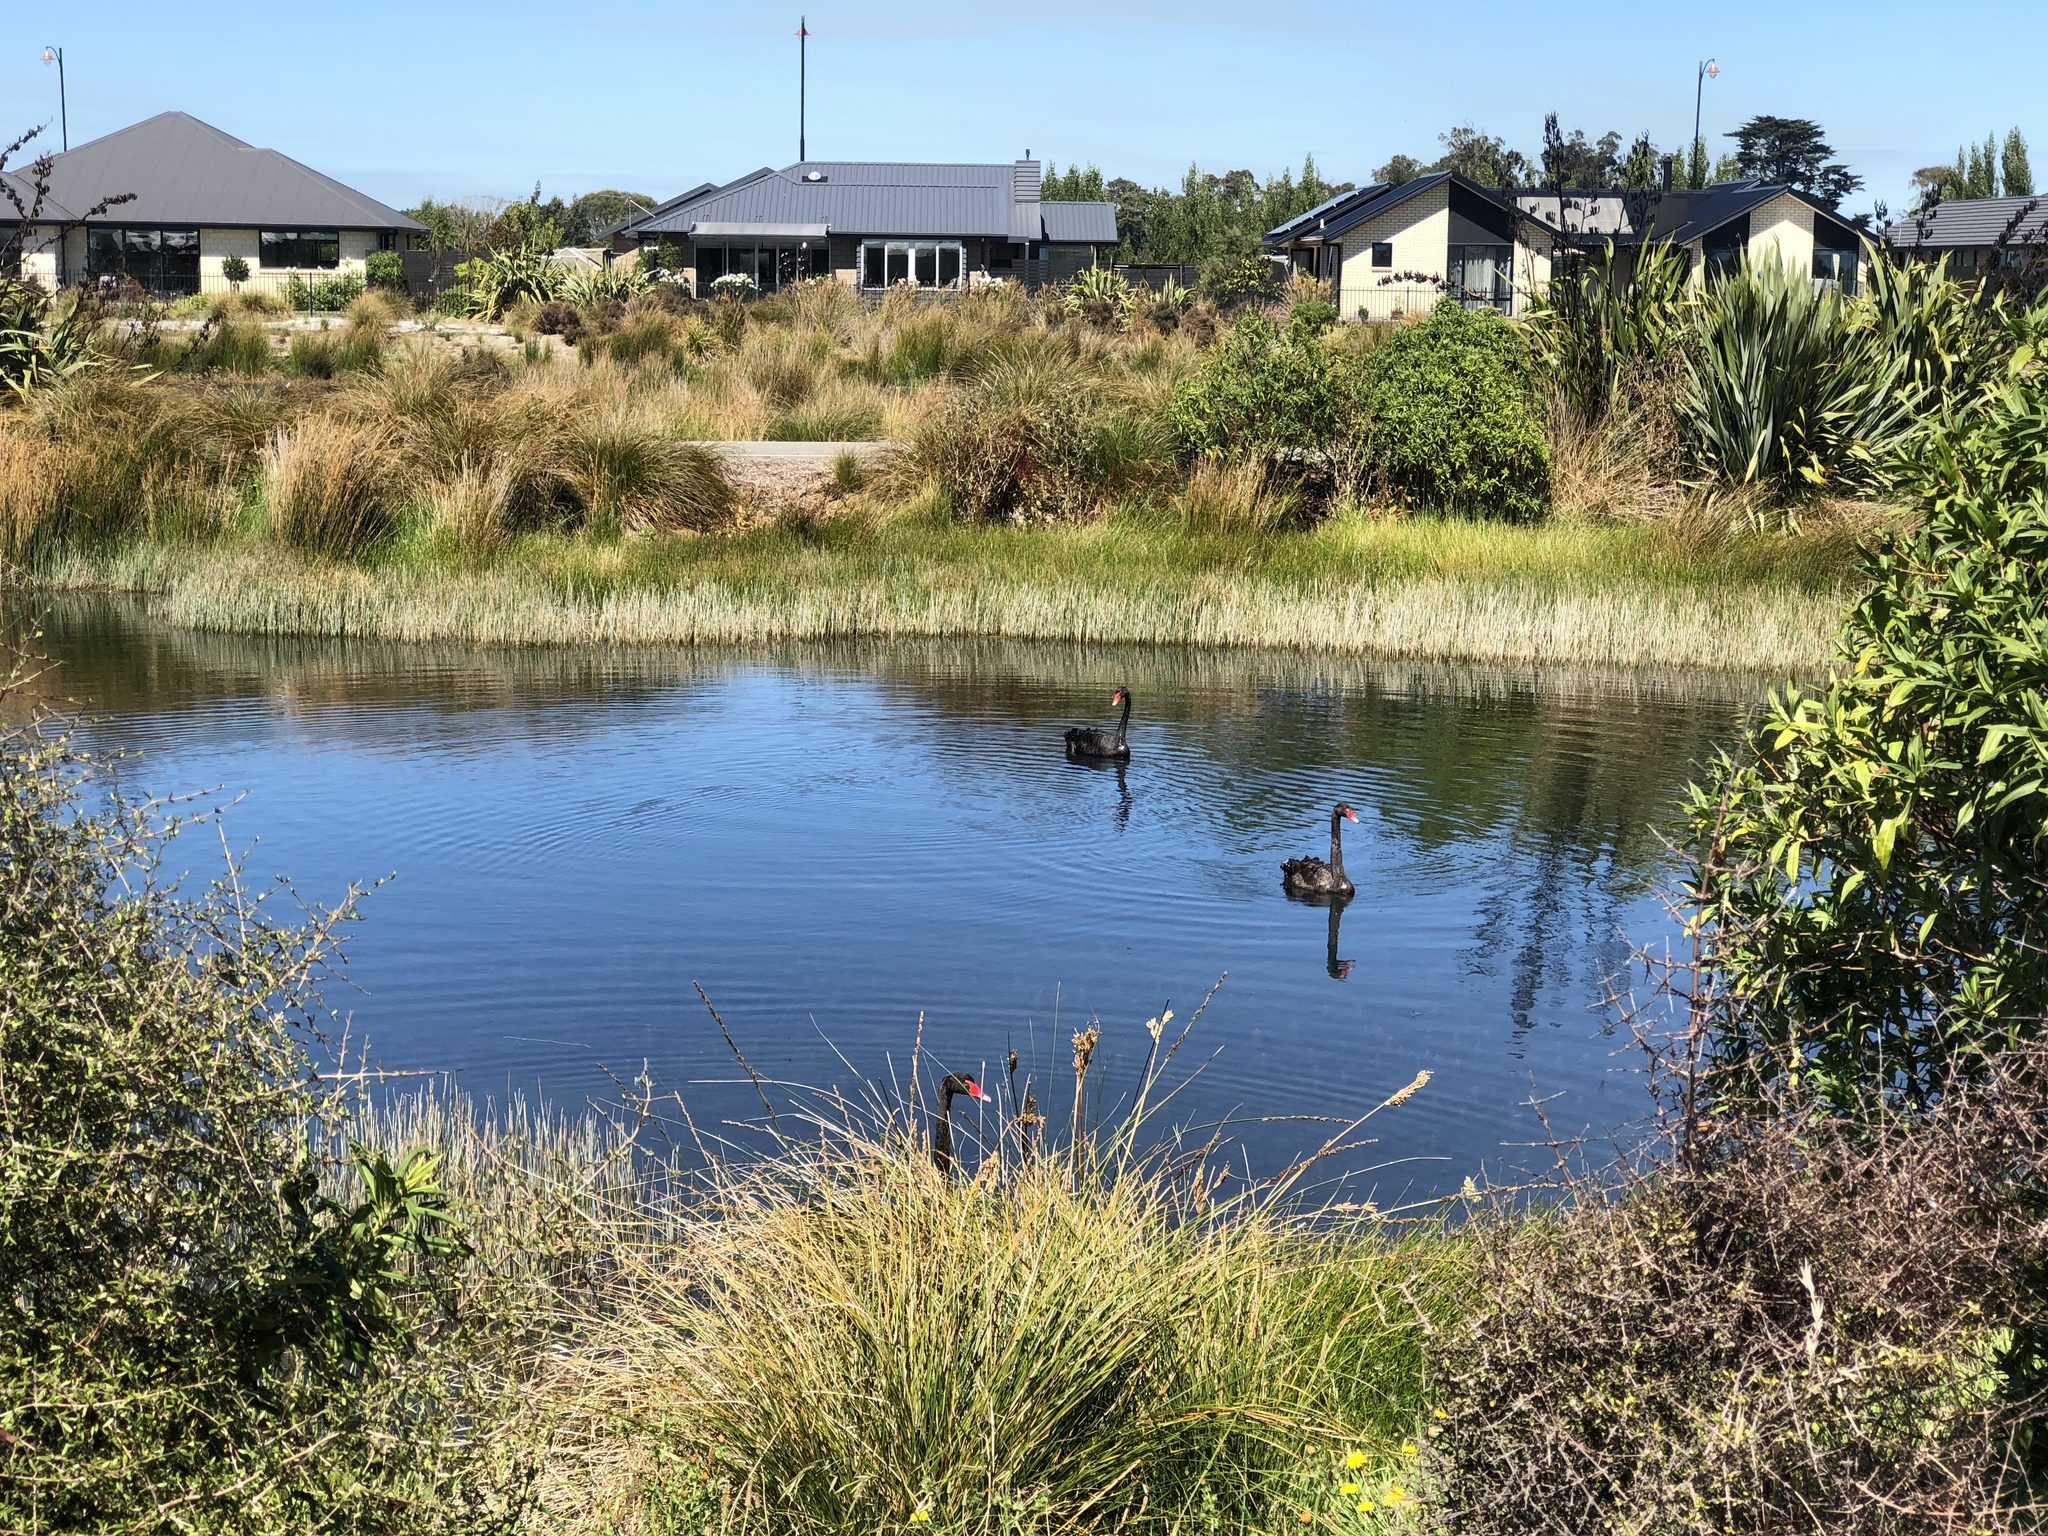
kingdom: Animalia
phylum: Chordata
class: Aves
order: Anseriformes
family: Anatidae
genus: Cygnus
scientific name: Cygnus atratus
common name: Black swan
